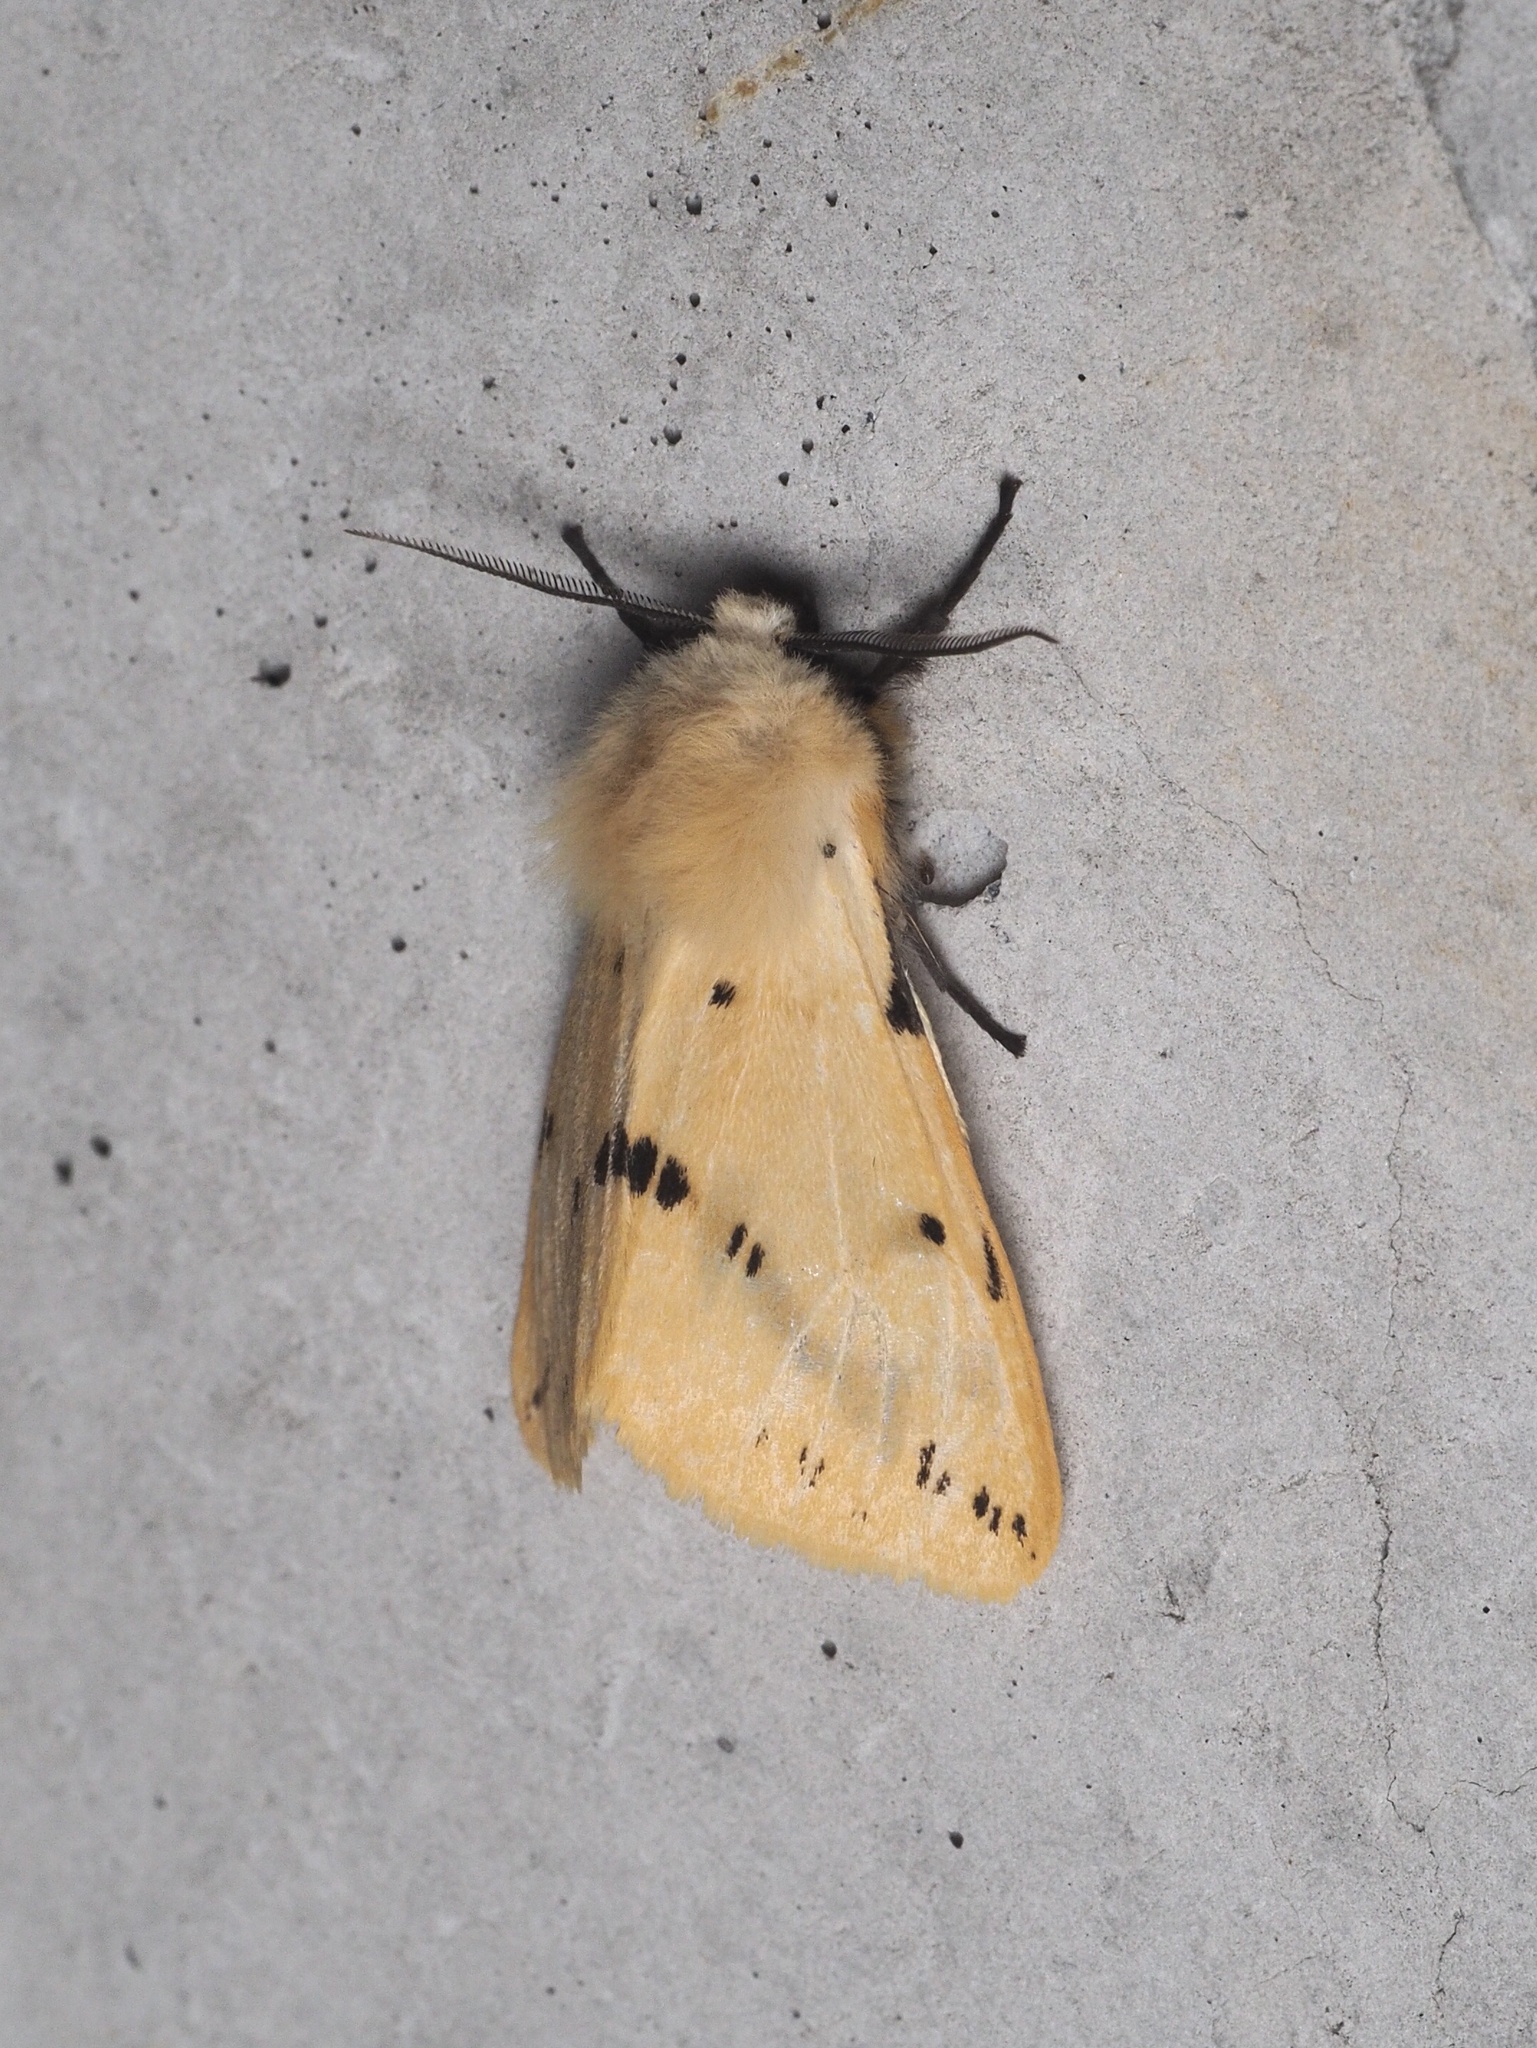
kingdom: Animalia
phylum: Arthropoda
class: Insecta
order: Lepidoptera
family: Erebidae
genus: Spilarctia
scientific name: Spilarctia lutea
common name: Buff ermine
